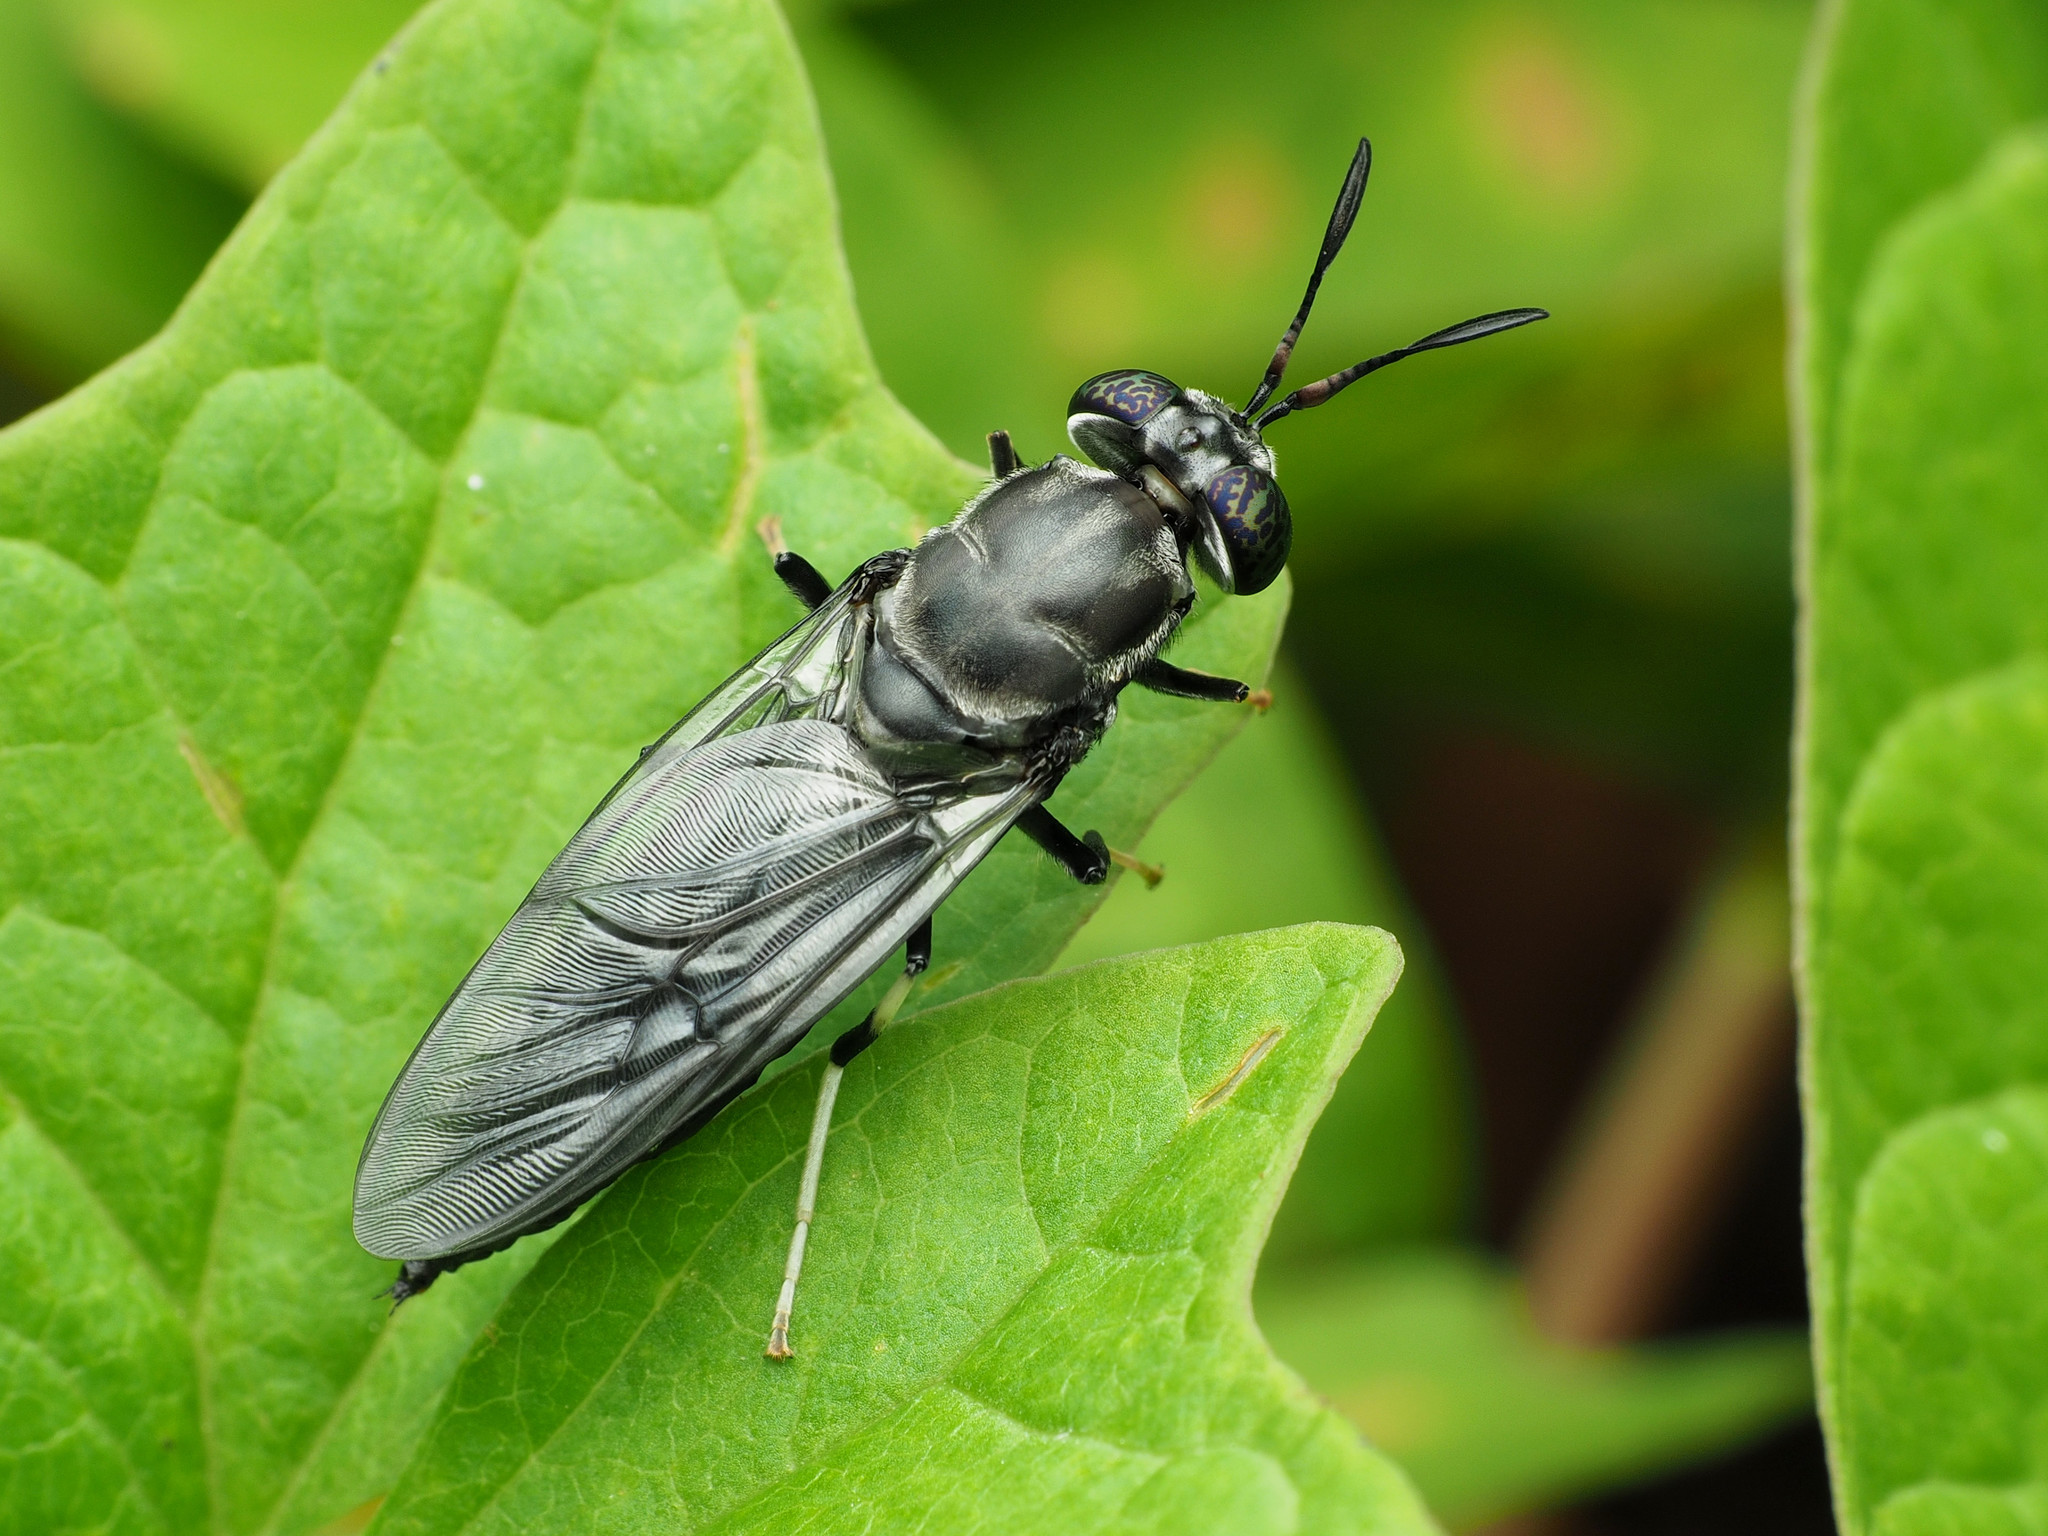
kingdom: Animalia
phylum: Arthropoda
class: Insecta
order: Diptera
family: Stratiomyidae
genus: Hermetia
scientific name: Hermetia illucens
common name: Black soldier fly
